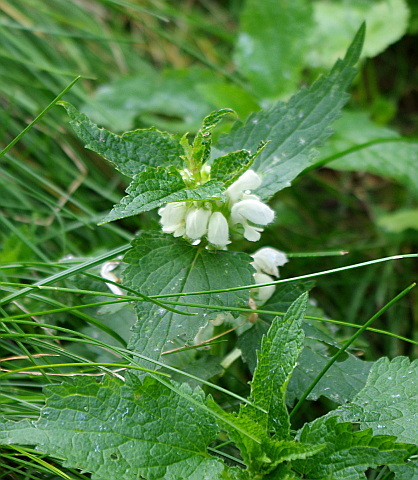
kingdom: Plantae
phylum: Tracheophyta
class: Magnoliopsida
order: Lamiales
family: Lamiaceae
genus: Lamium
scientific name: Lamium album
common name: White dead-nettle
